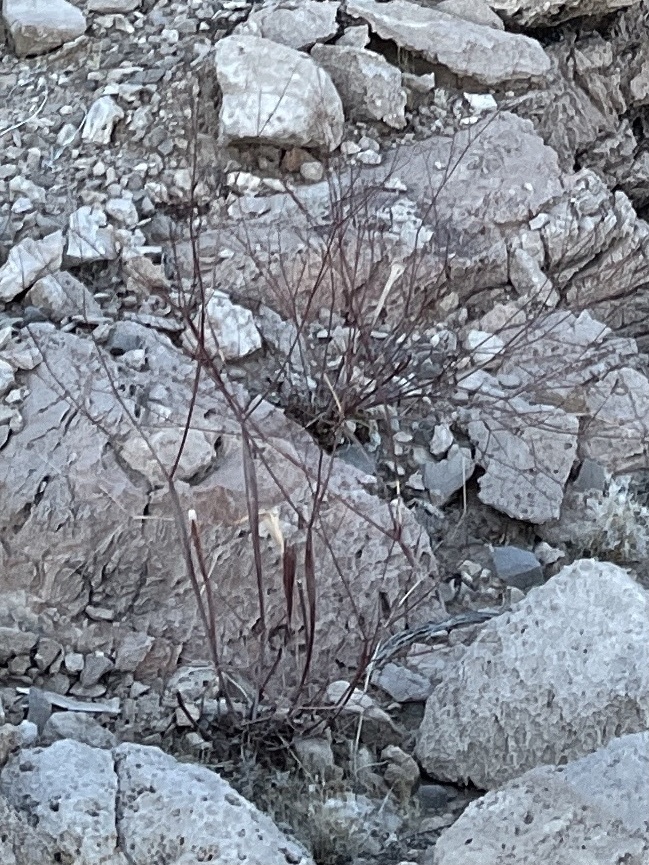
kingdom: Plantae
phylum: Tracheophyta
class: Magnoliopsida
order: Caryophyllales
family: Polygonaceae
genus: Eriogonum
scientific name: Eriogonum inflatum
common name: Desert trumpet
